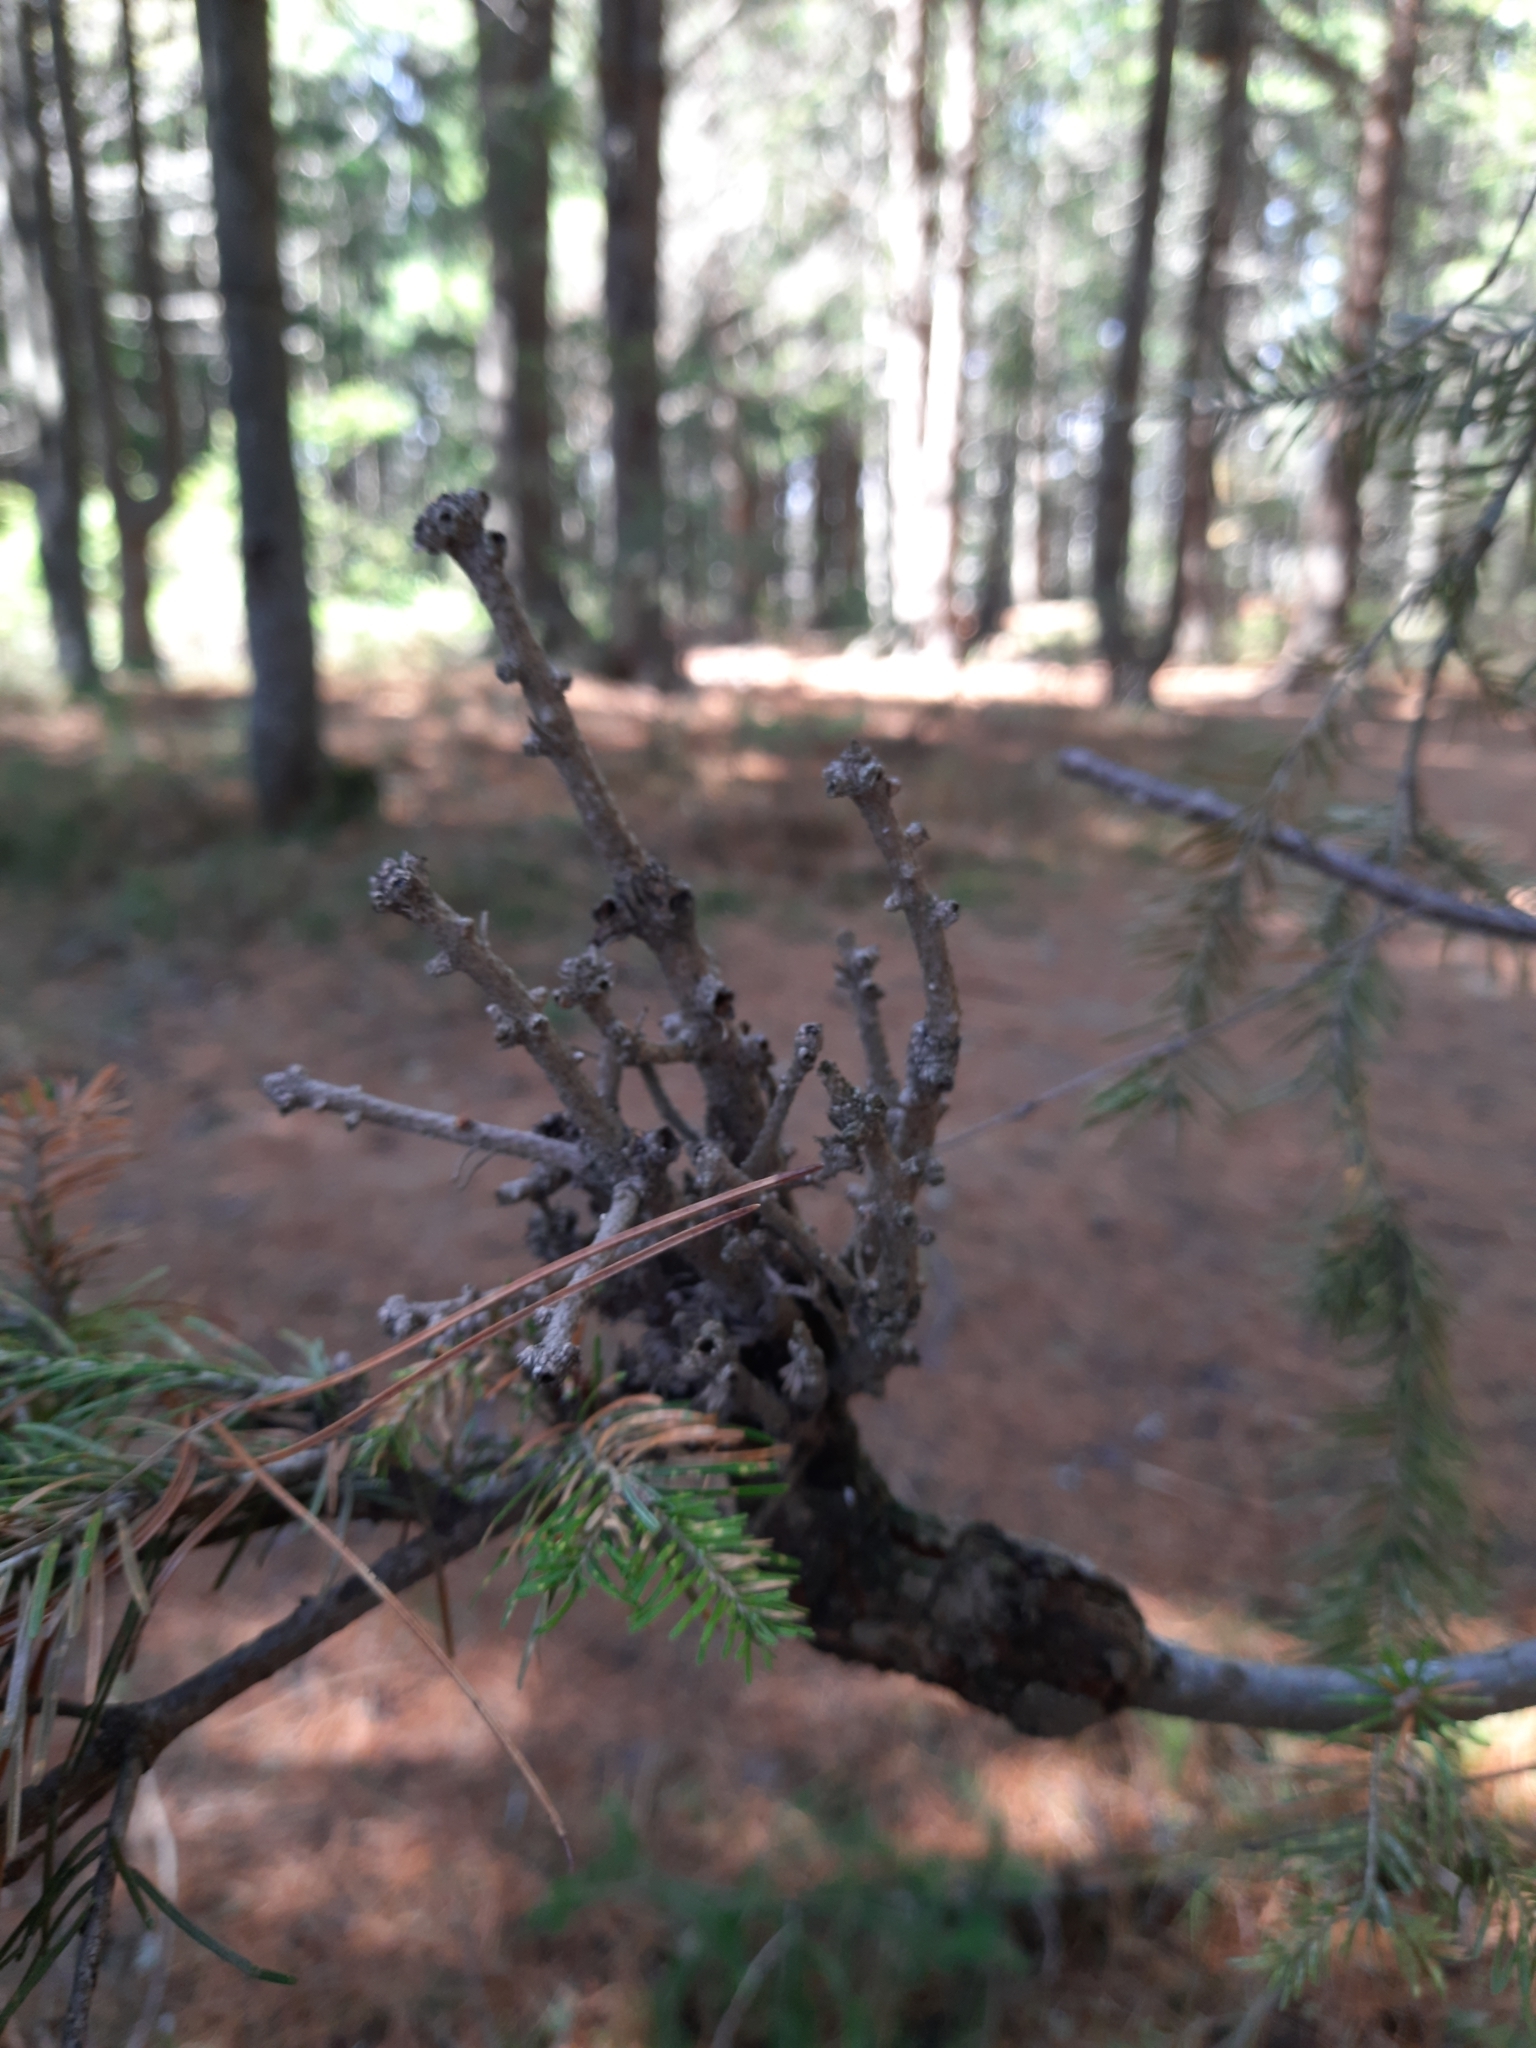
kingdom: Plantae
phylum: Tracheophyta
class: Pinopsida
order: Pinales
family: Pinaceae
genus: Abies
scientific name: Abies sibirica
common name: Siberian fir
